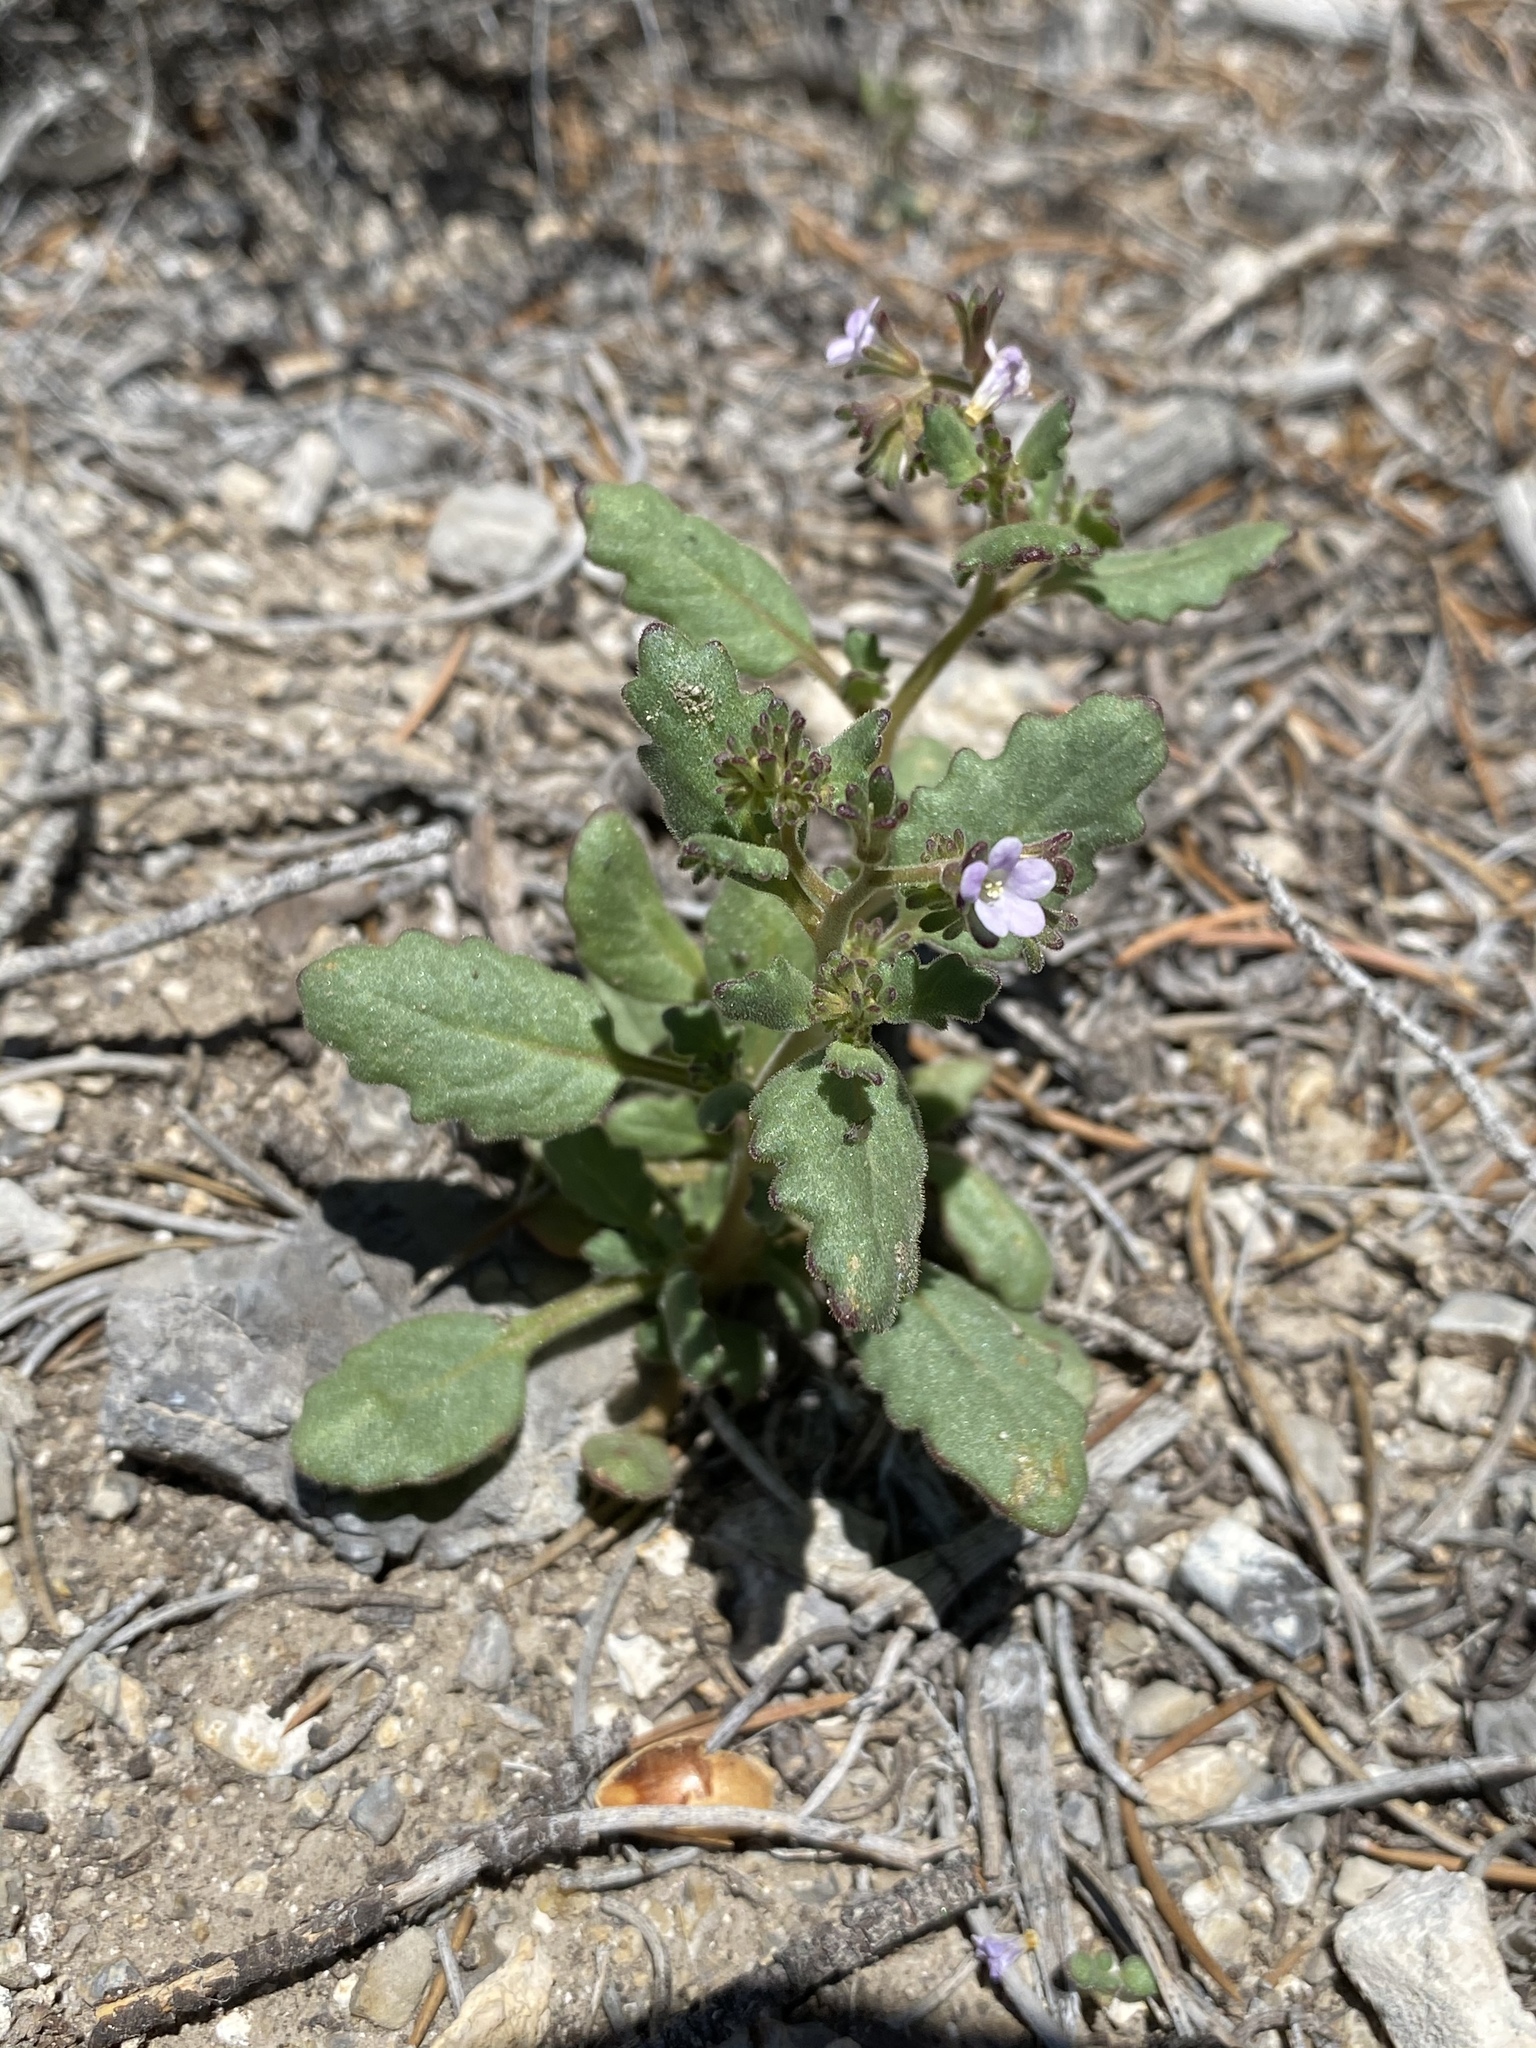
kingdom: Plantae
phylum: Tracheophyta
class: Magnoliopsida
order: Boraginales
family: Hydrophyllaceae
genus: Phacelia
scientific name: Phacelia lemmonii
